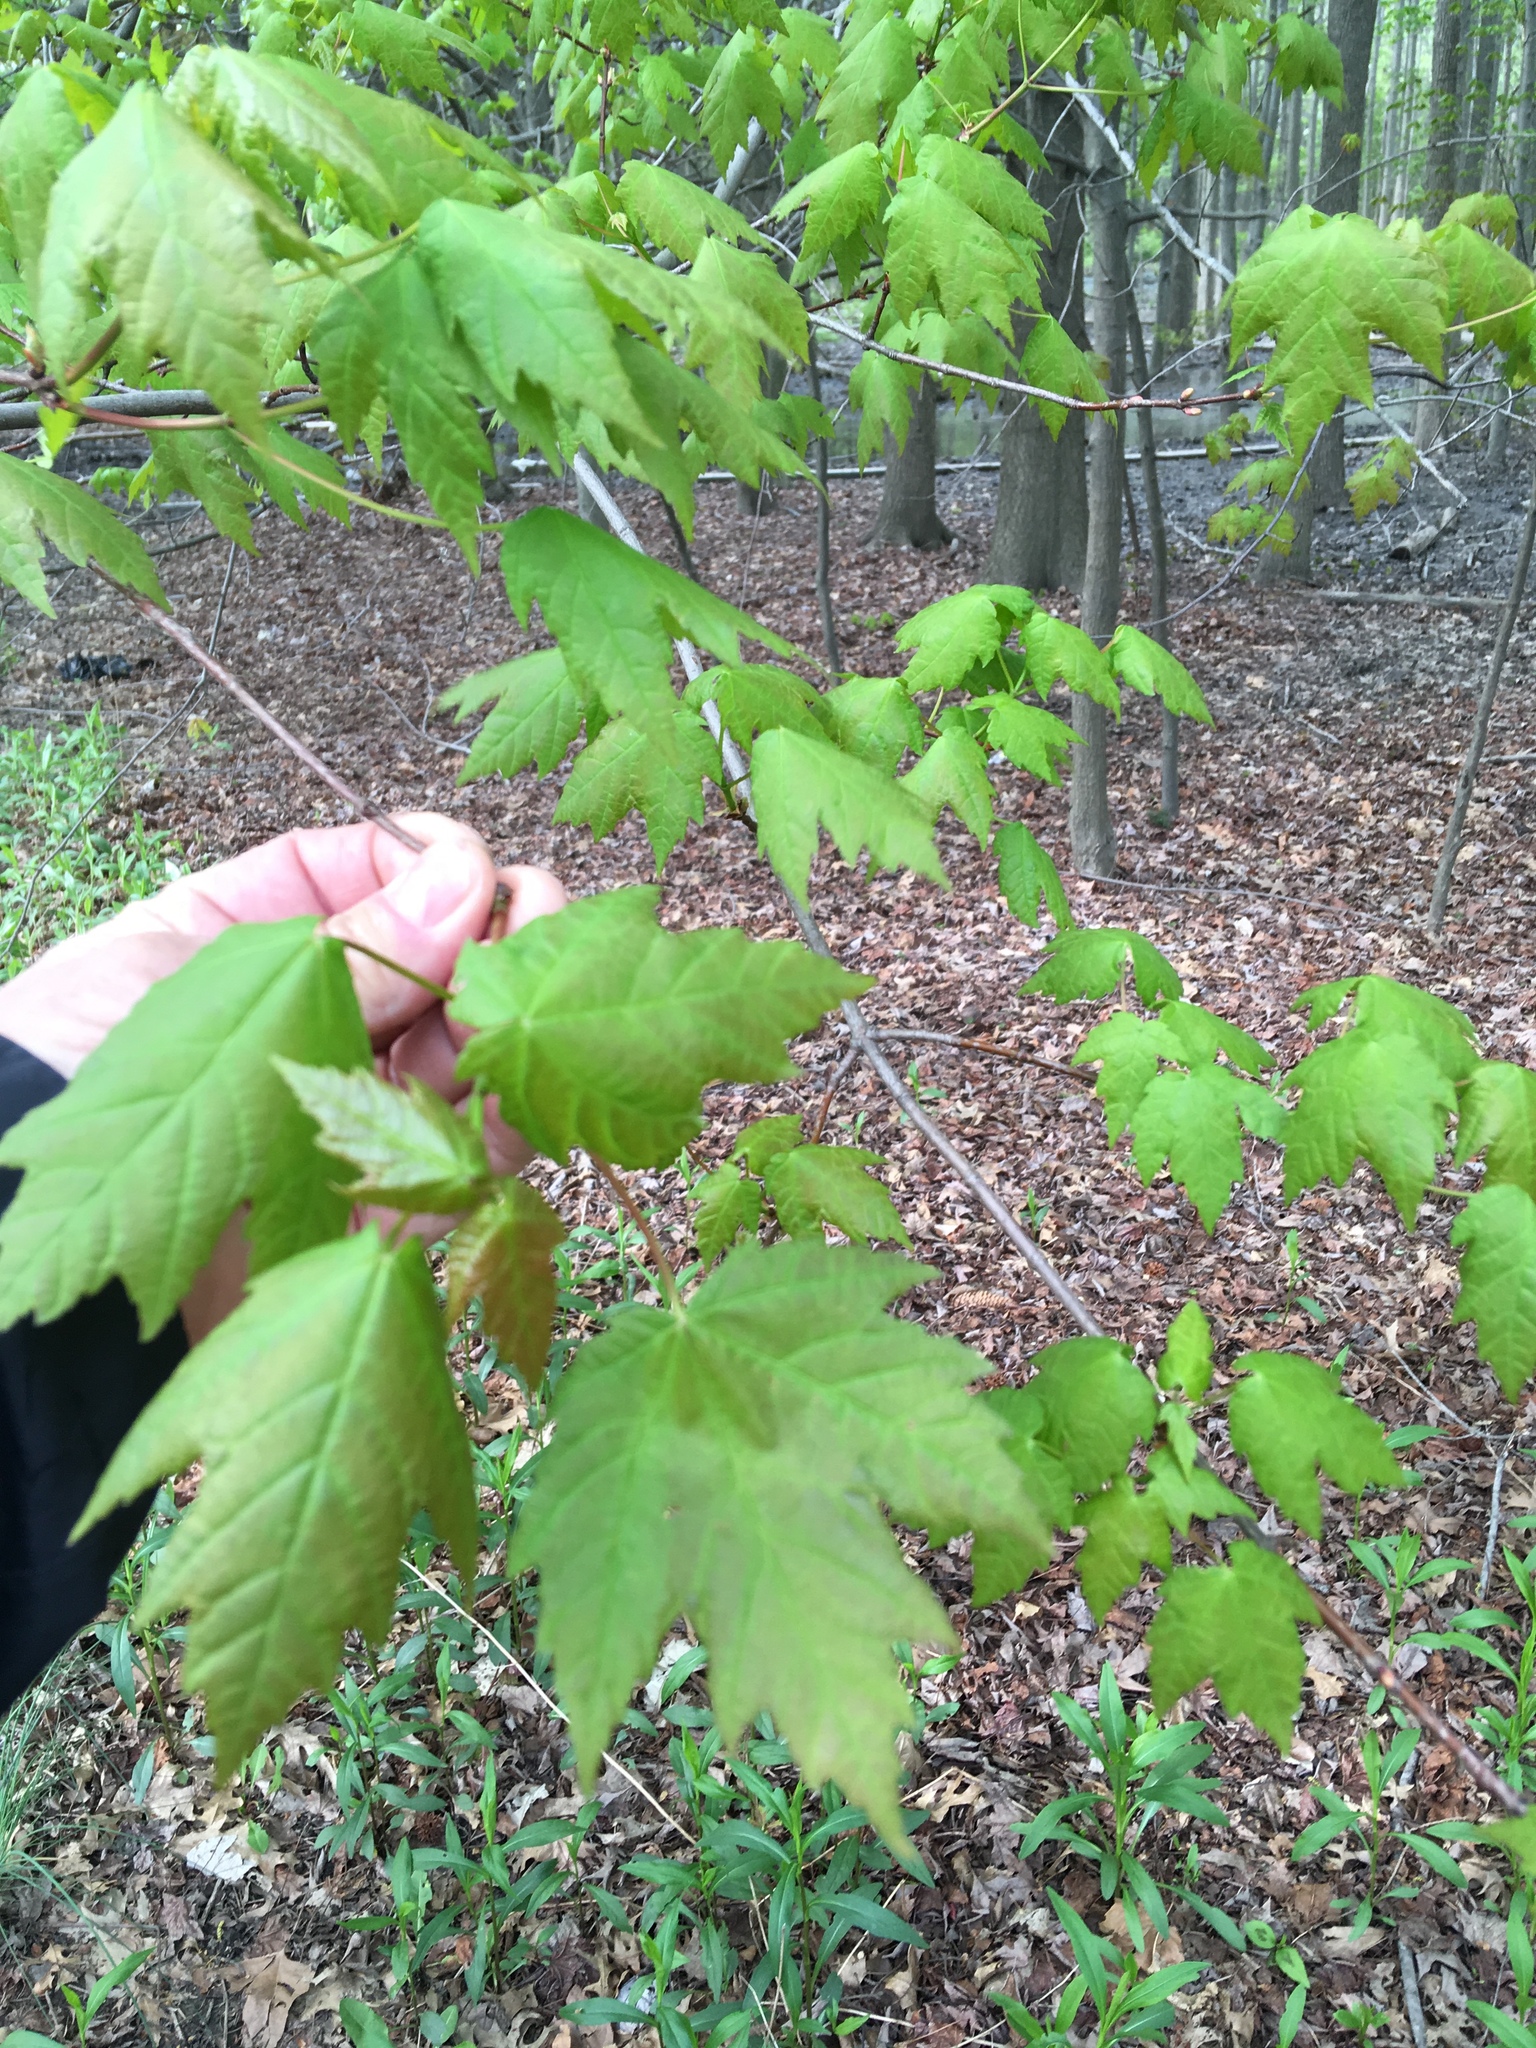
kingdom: Plantae
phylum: Tracheophyta
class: Magnoliopsida
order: Sapindales
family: Sapindaceae
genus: Acer
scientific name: Acer rubrum
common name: Red maple
